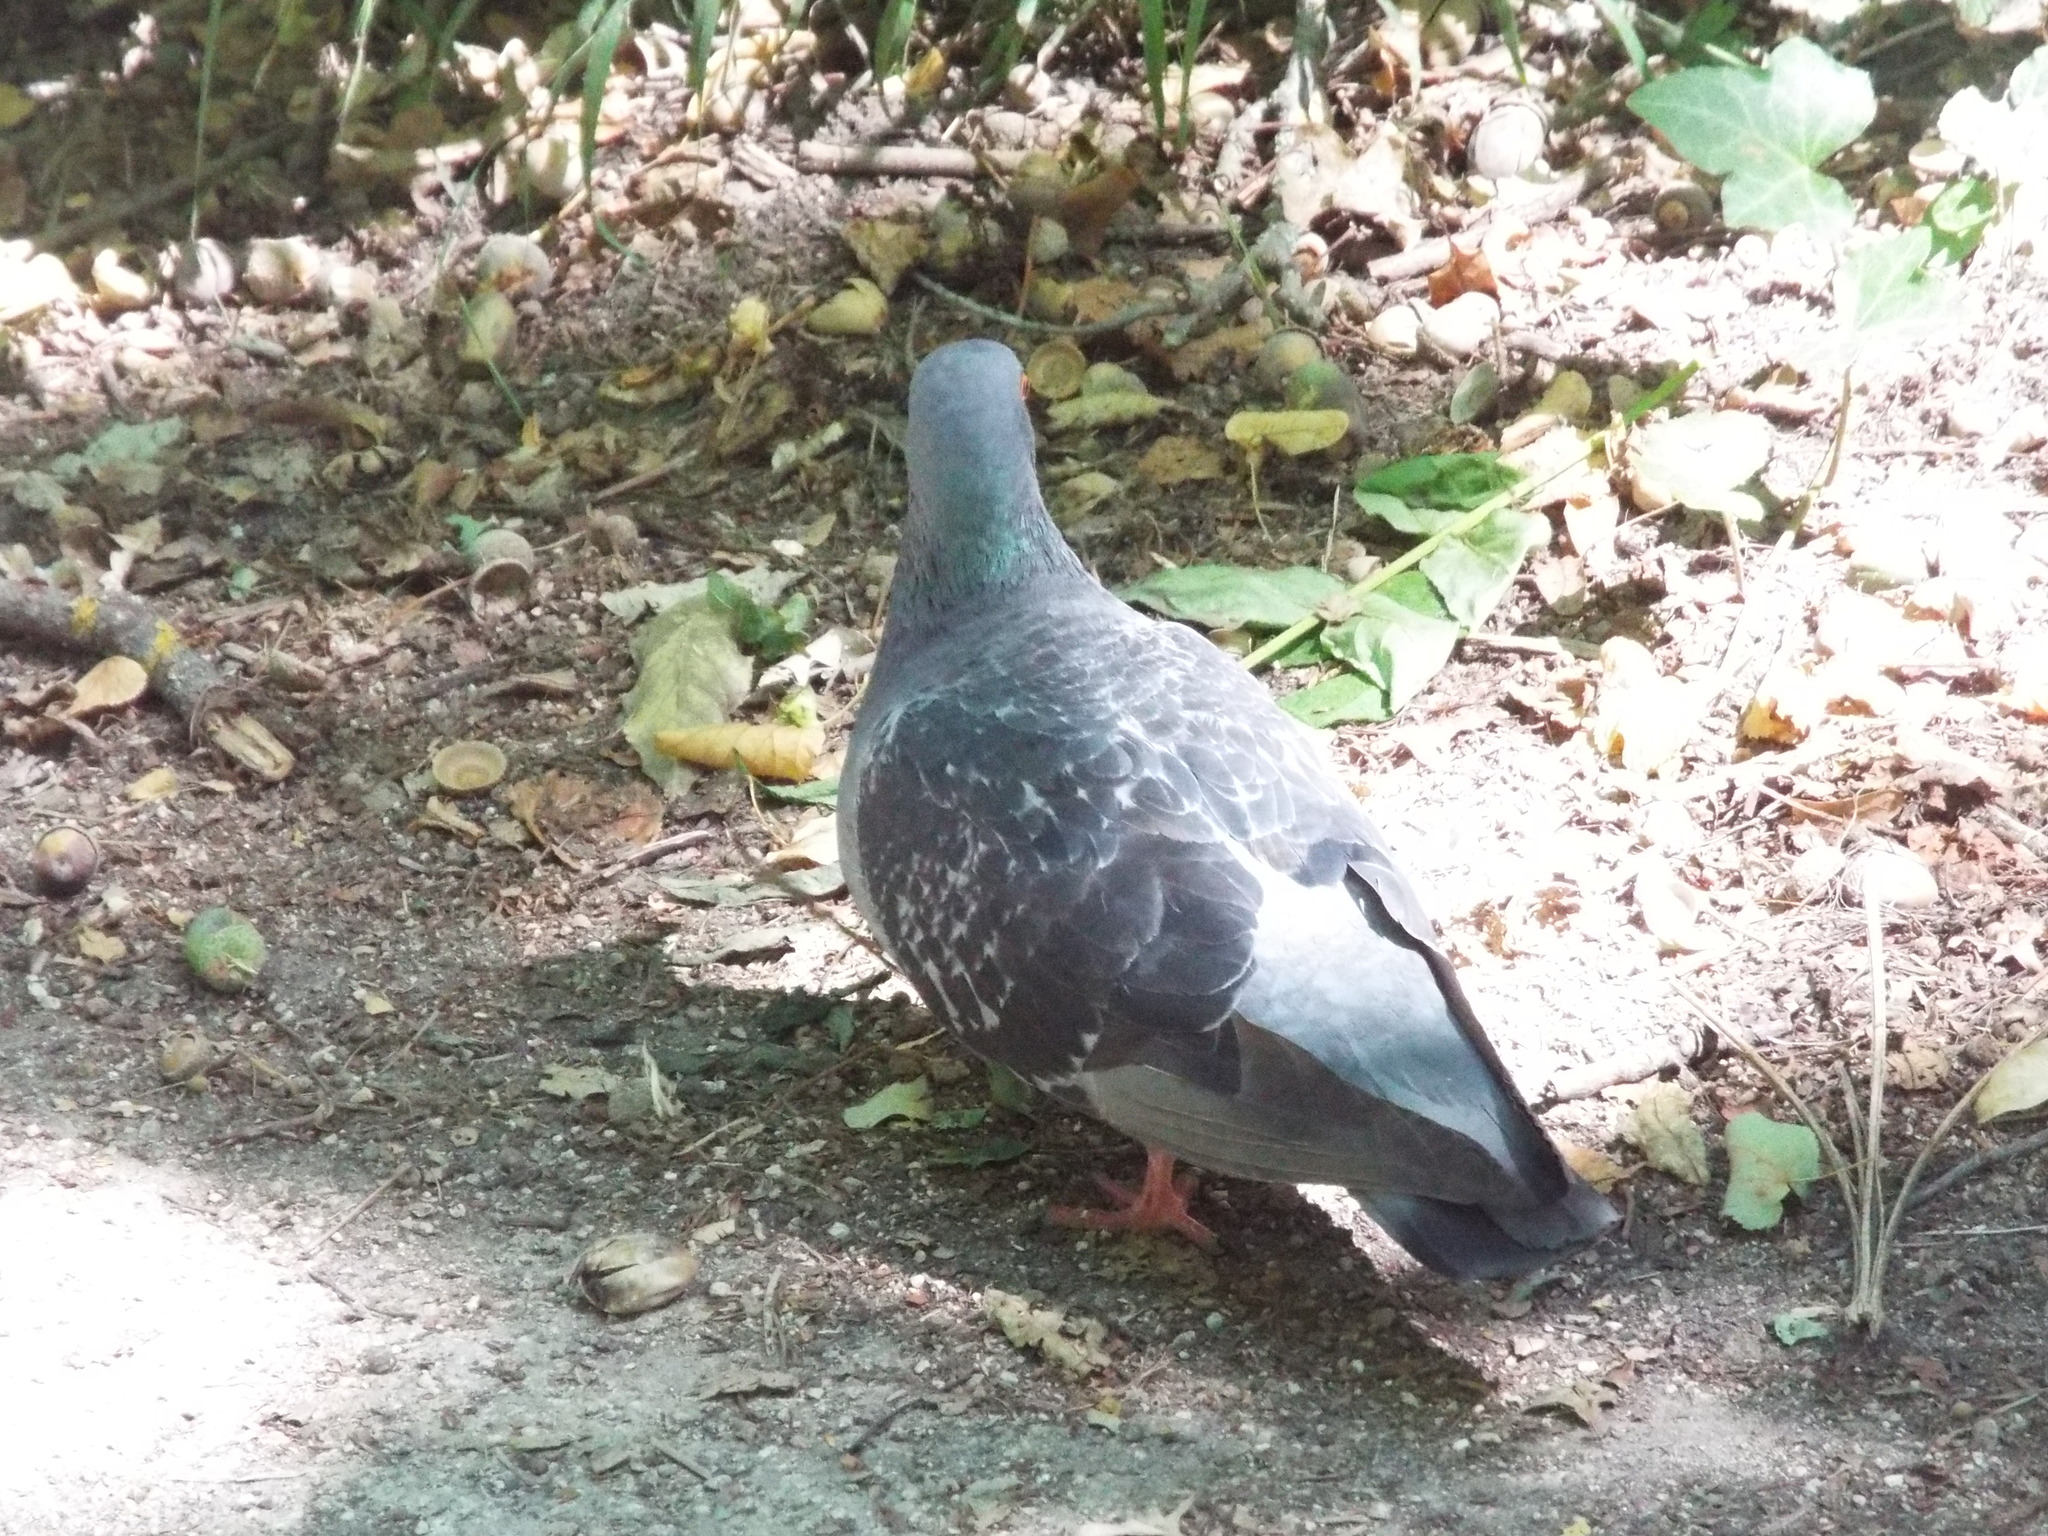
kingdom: Animalia
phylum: Chordata
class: Aves
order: Columbiformes
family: Columbidae
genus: Columba
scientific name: Columba livia
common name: Rock pigeon
